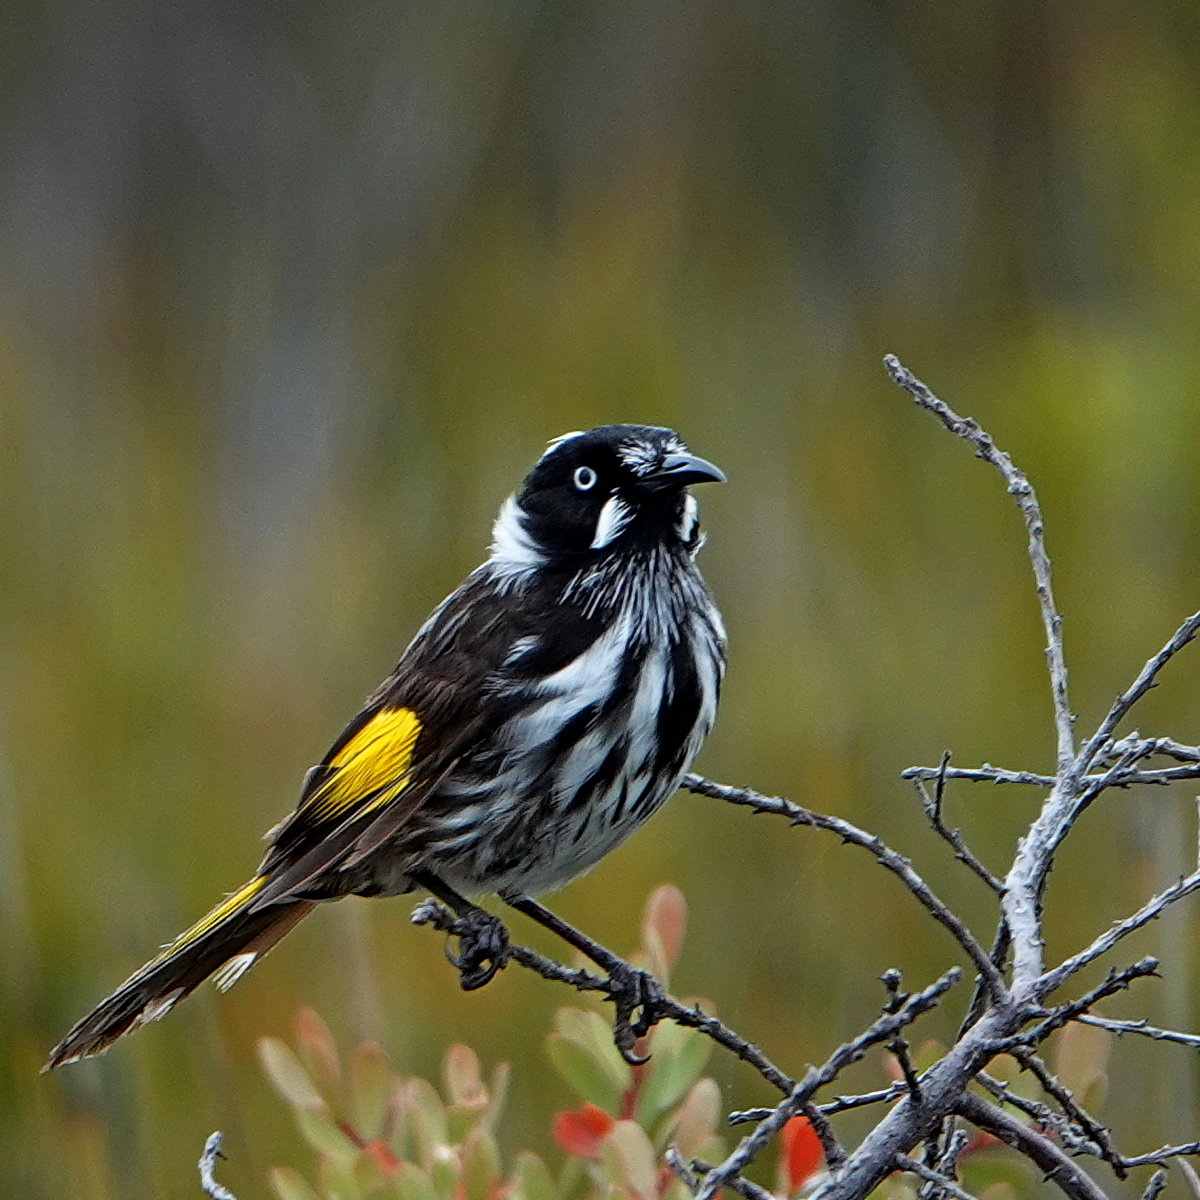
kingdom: Animalia
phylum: Chordata
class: Aves
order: Passeriformes
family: Meliphagidae
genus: Phylidonyris
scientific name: Phylidonyris novaehollandiae
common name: New holland honeyeater
